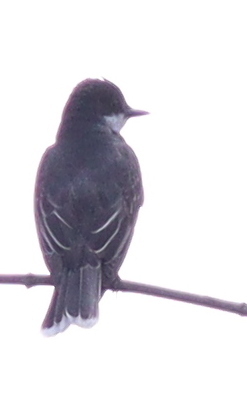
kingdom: Animalia
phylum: Chordata
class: Aves
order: Passeriformes
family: Tyrannidae
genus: Tyrannus
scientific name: Tyrannus tyrannus
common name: Eastern kingbird
